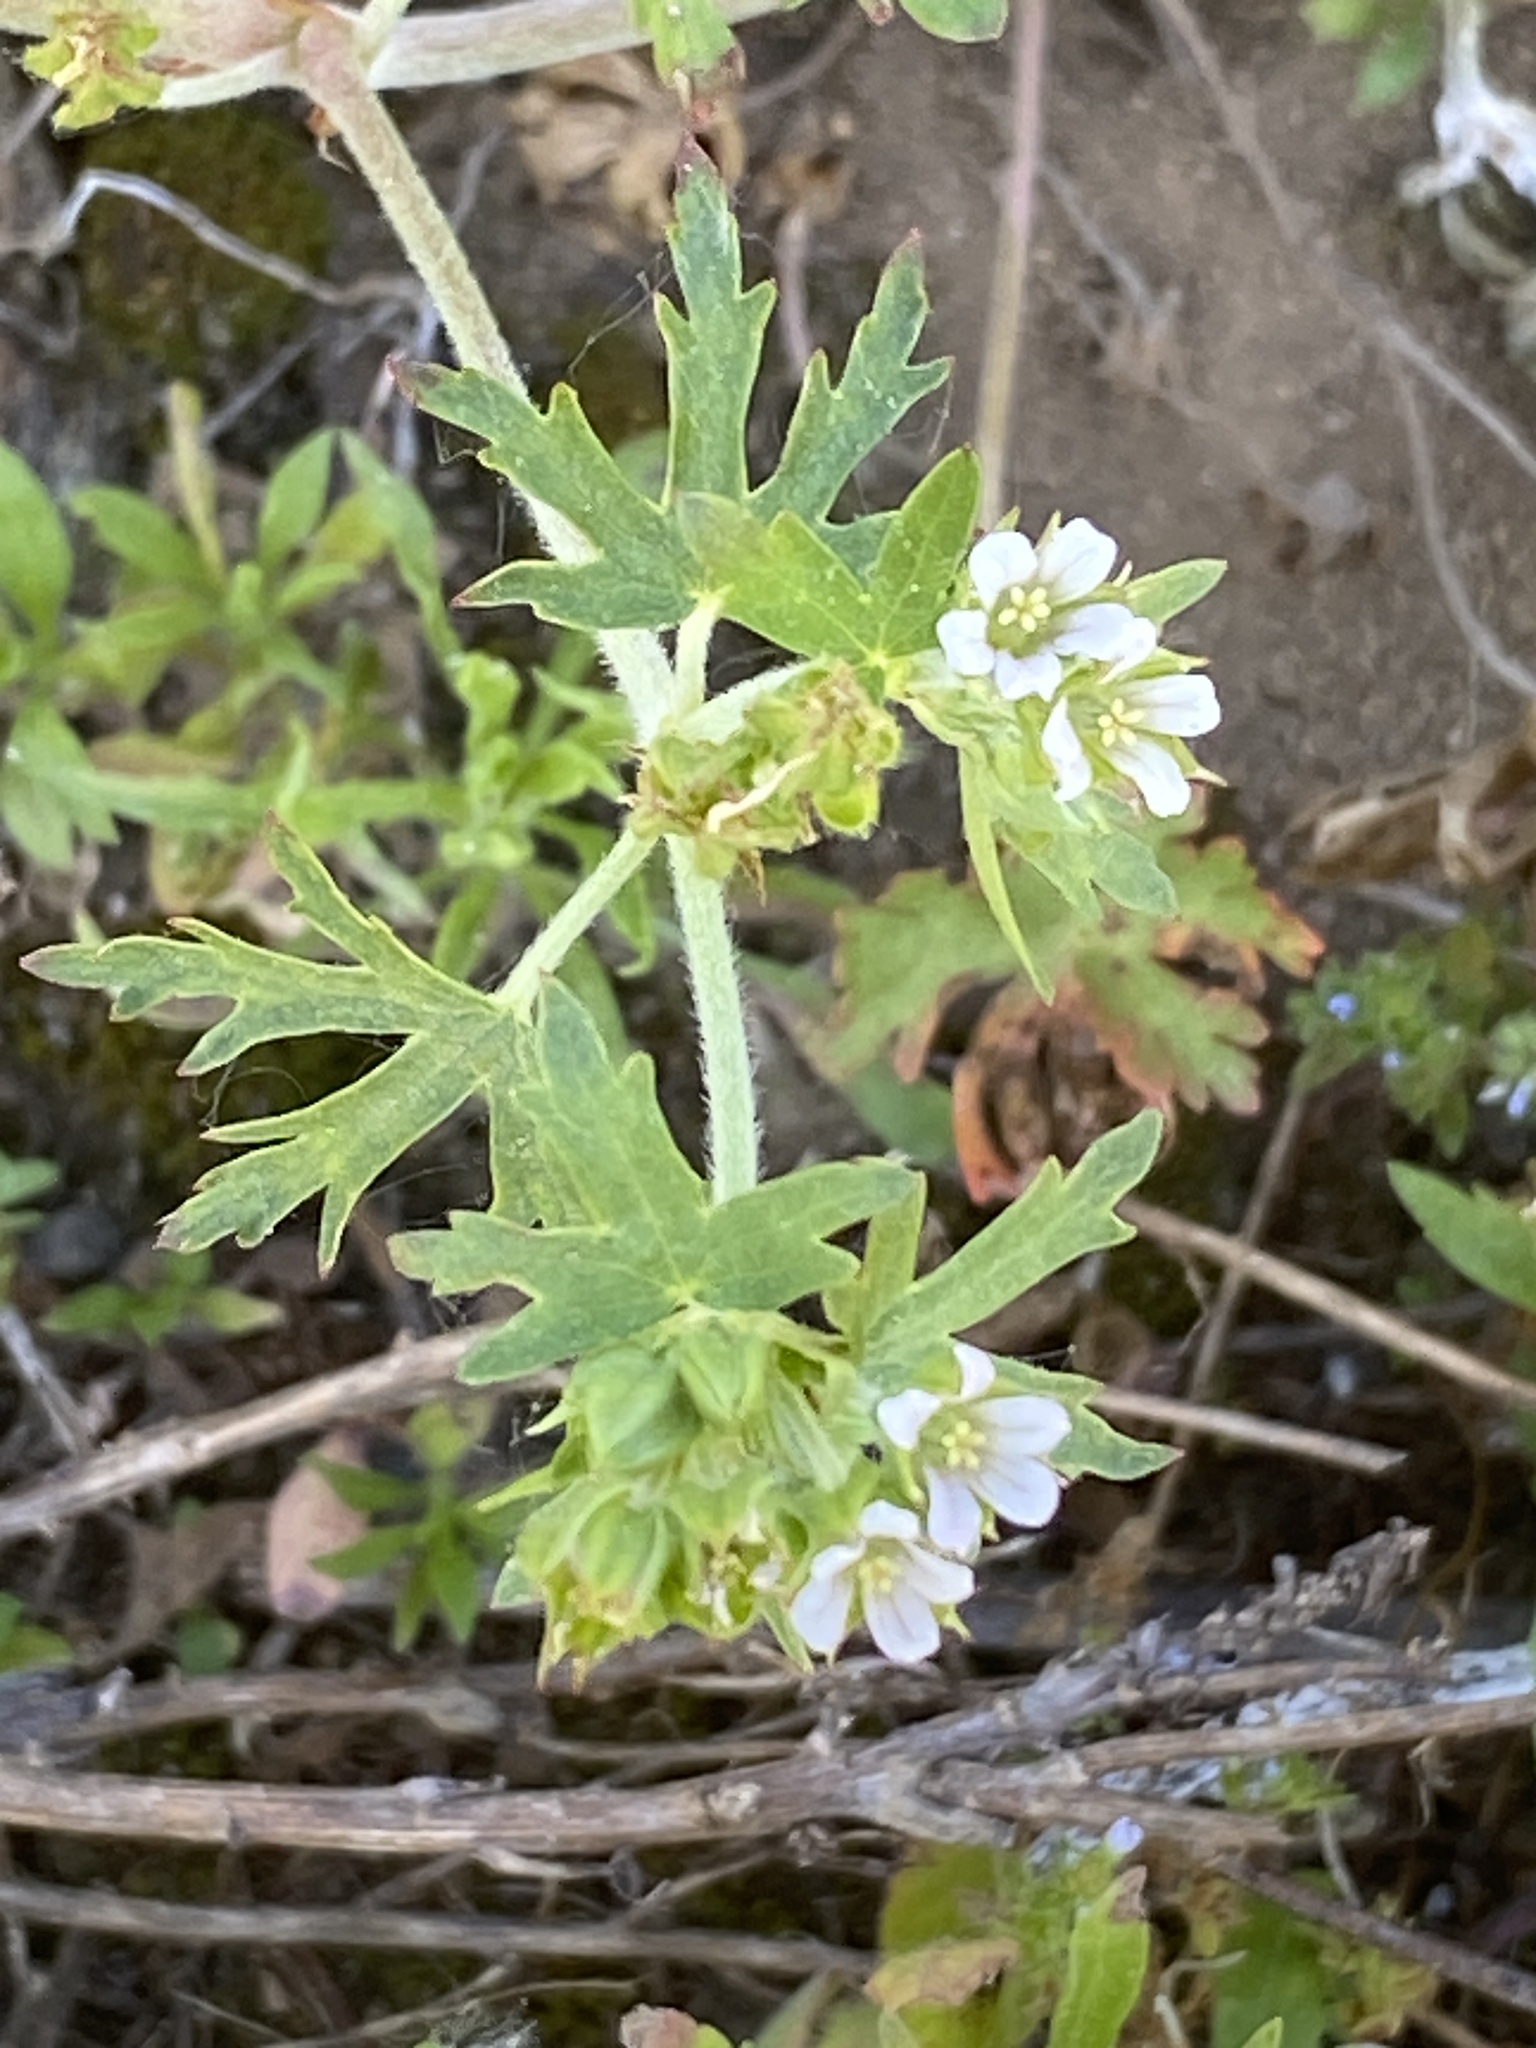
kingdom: Plantae
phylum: Tracheophyta
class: Magnoliopsida
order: Geraniales
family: Geraniaceae
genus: Geranium
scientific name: Geranium carolinianum
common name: Carolina crane's-bill
